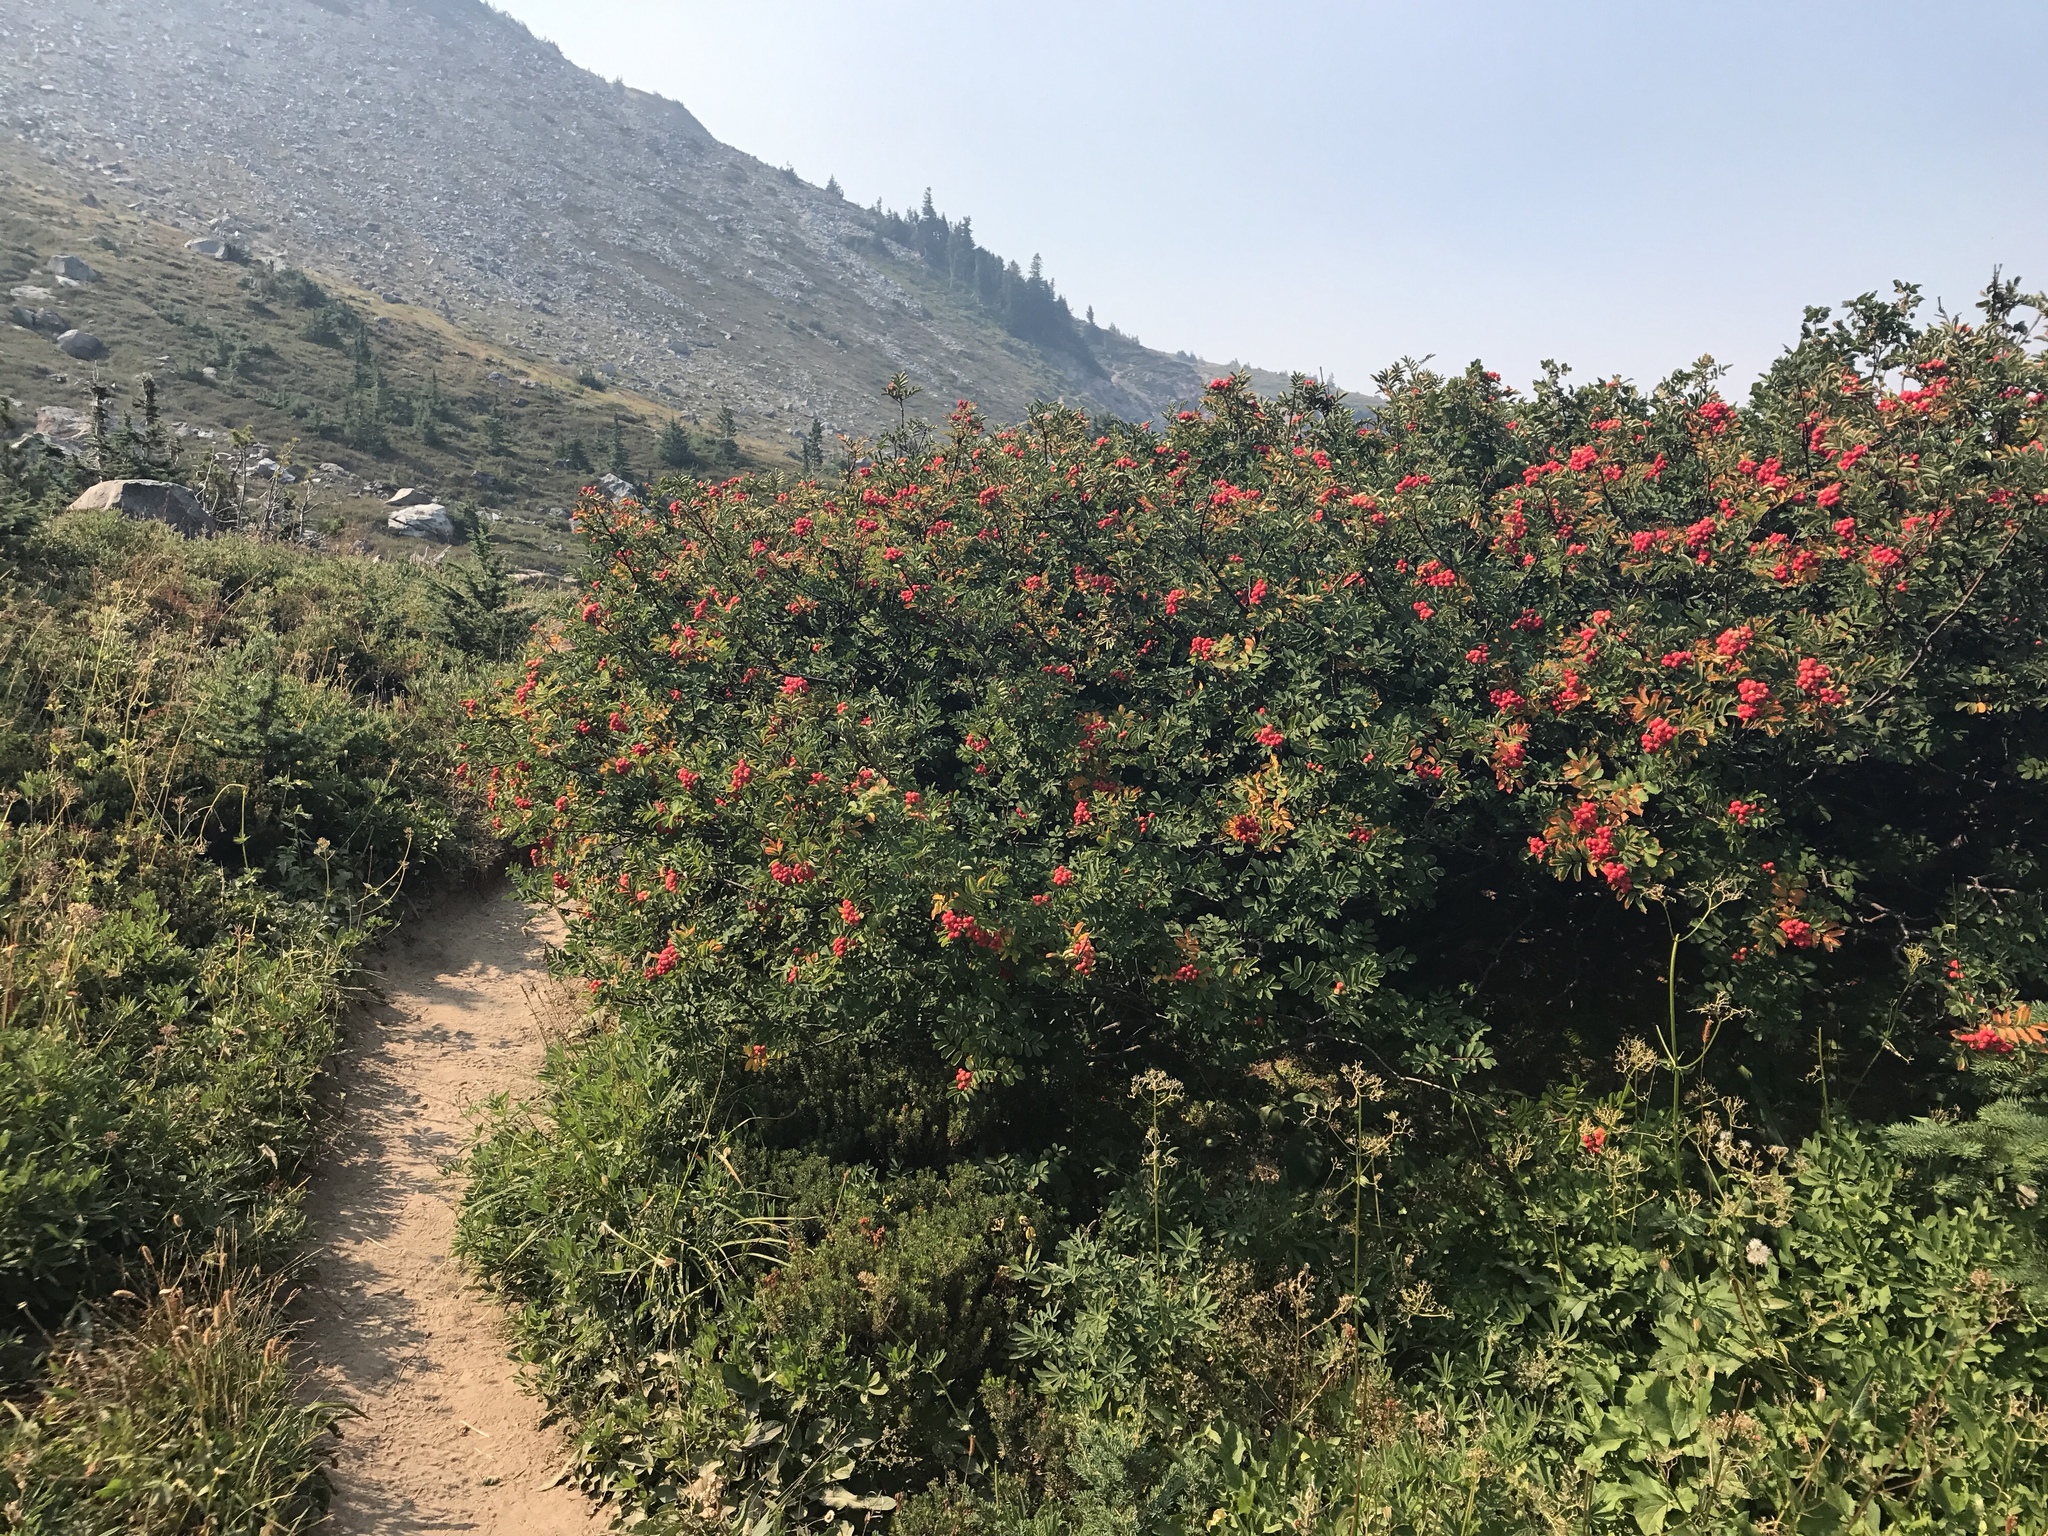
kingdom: Plantae
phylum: Tracheophyta
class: Magnoliopsida
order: Rosales
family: Rosaceae
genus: Sorbus
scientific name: Sorbus sitchensis
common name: Sitka mountain-ash
